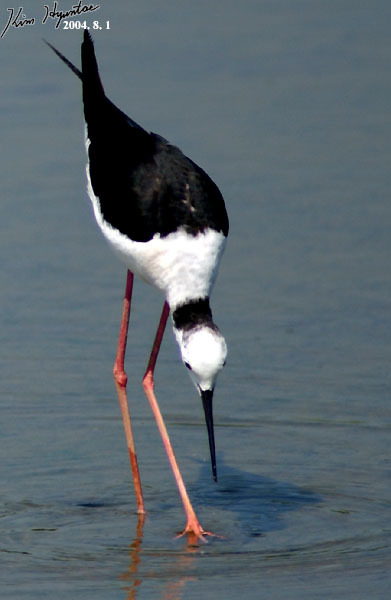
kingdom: Animalia
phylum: Chordata
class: Aves
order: Charadriiformes
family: Recurvirostridae
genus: Himantopus
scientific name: Himantopus himantopus
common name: Black-winged stilt
